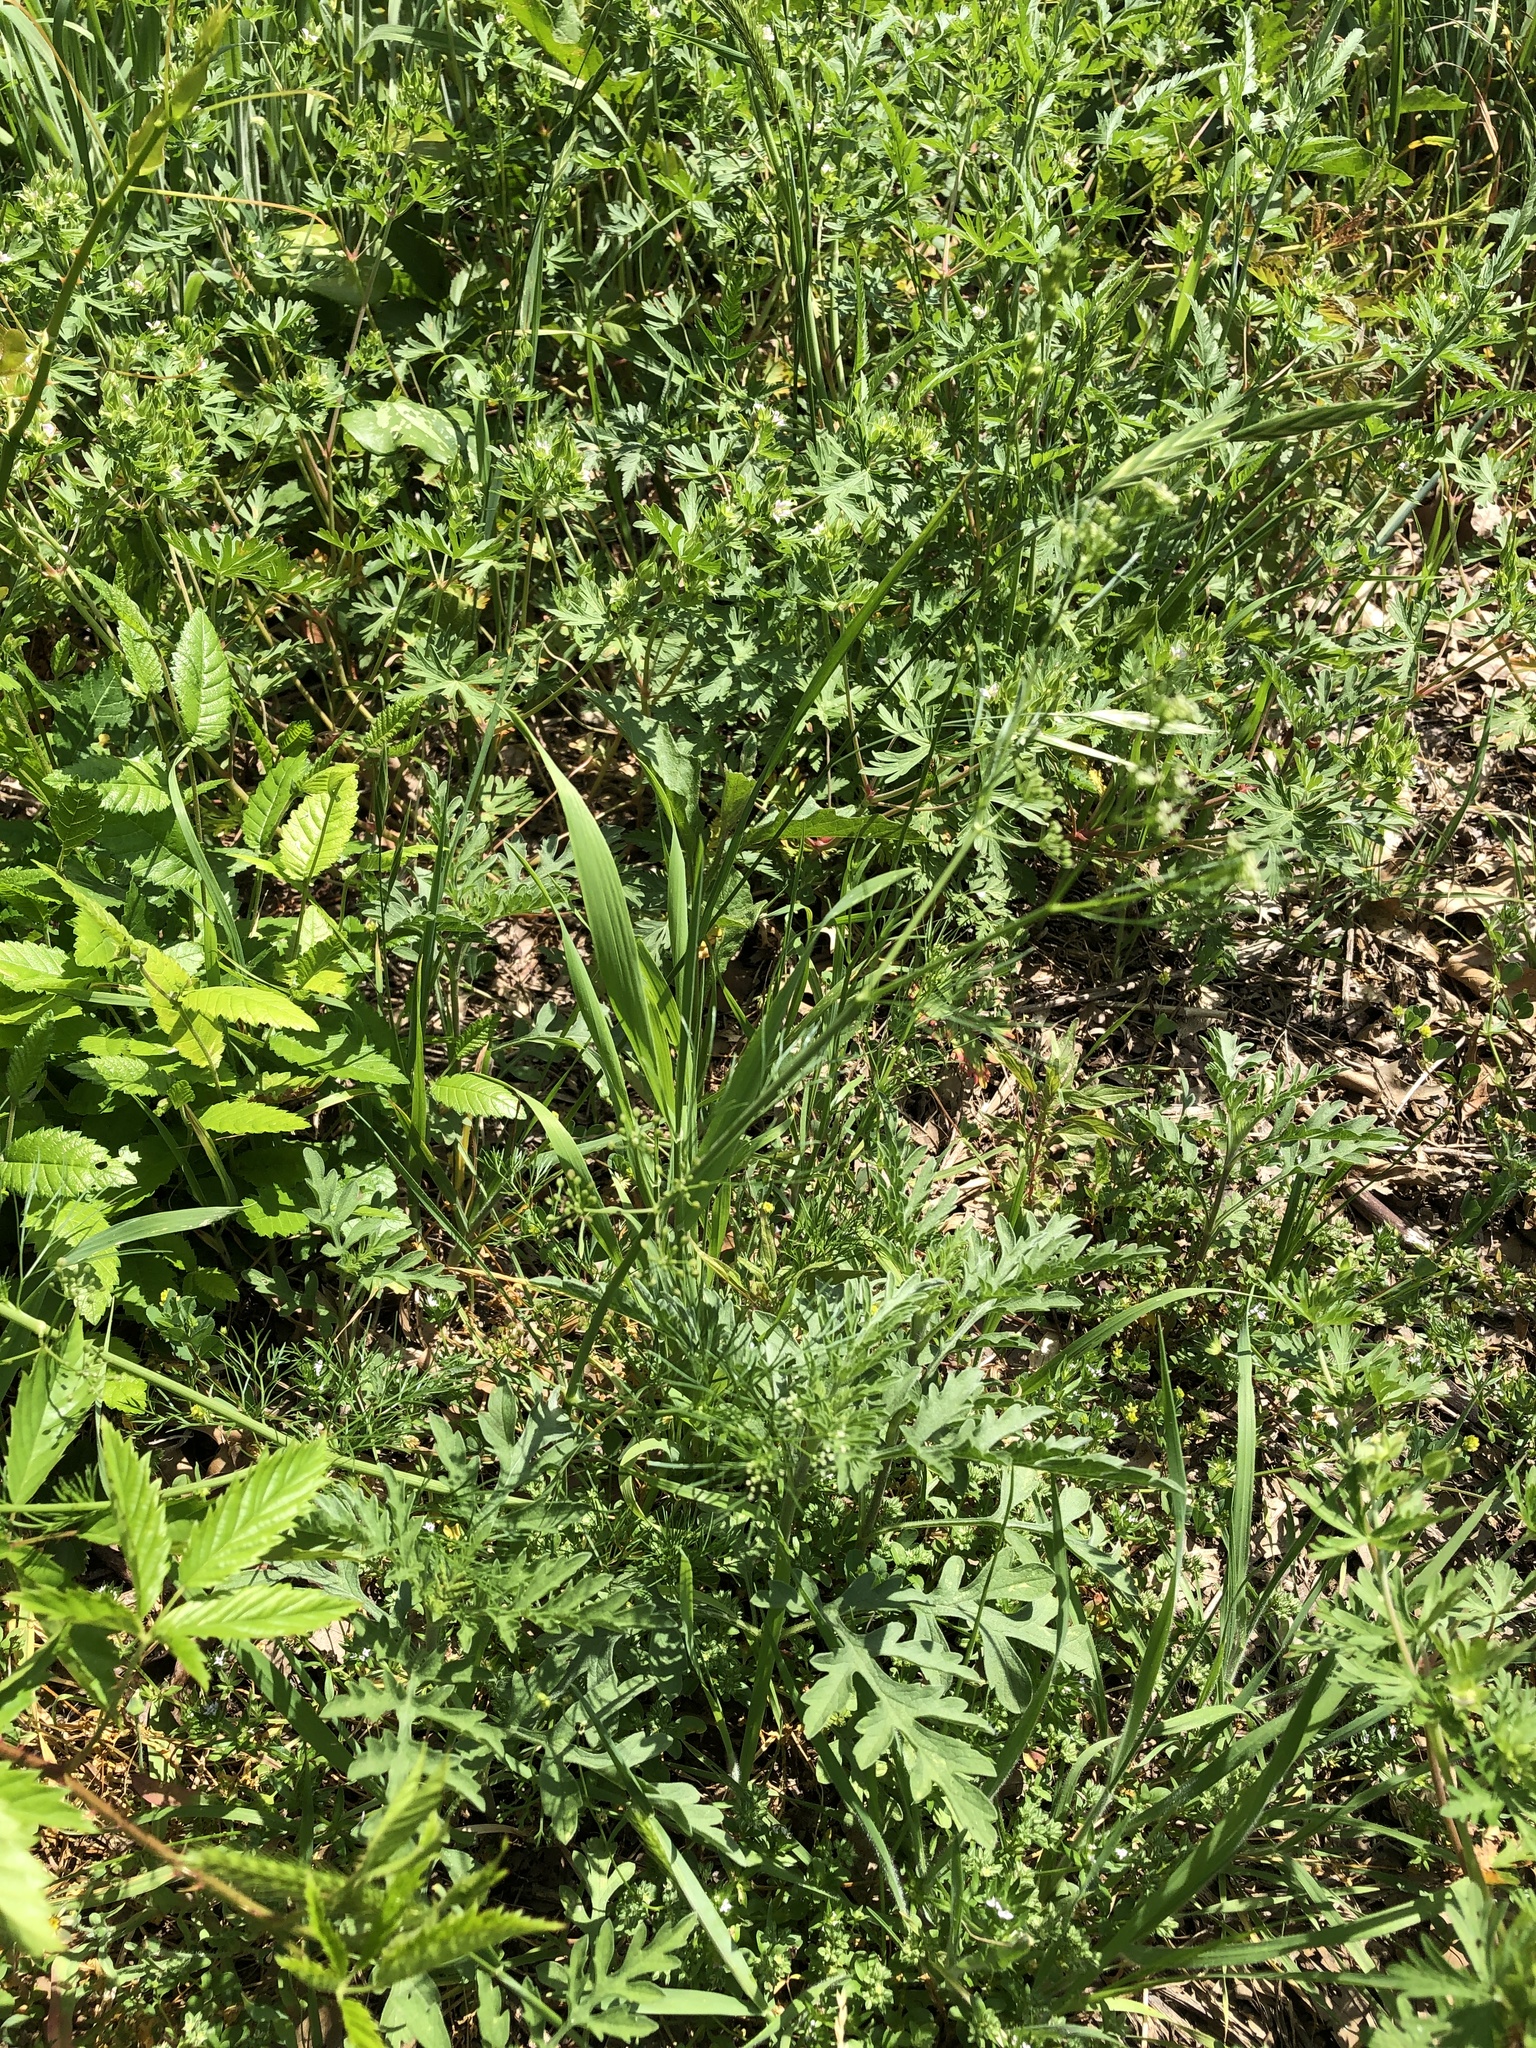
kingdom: Plantae
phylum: Tracheophyta
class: Magnoliopsida
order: Apiales
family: Apiaceae
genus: Cyclospermum
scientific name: Cyclospermum leptophyllum
